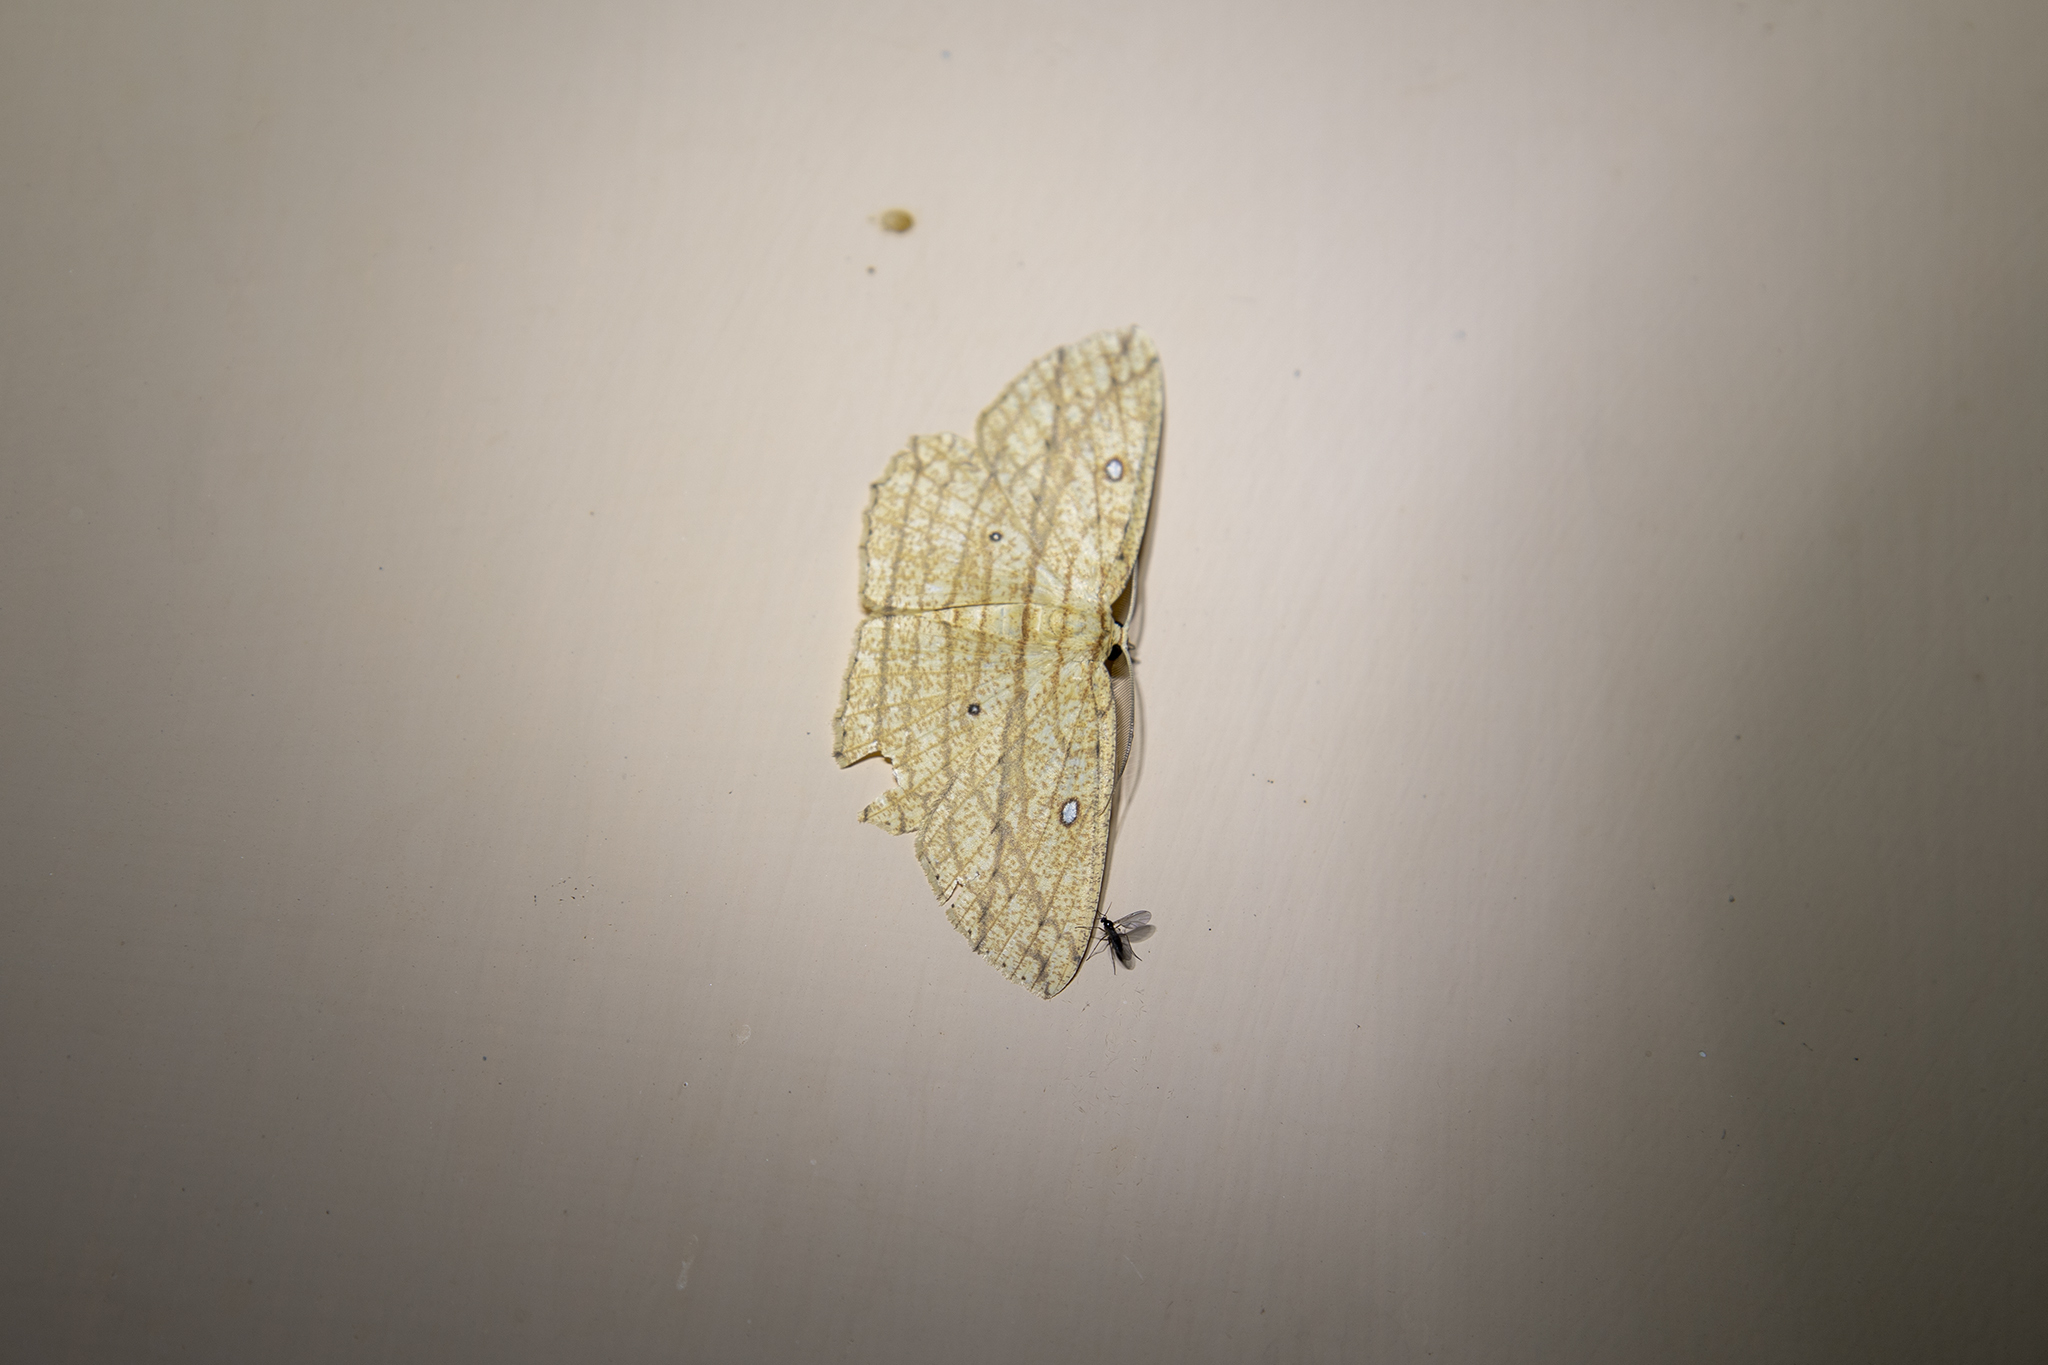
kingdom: Animalia
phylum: Arthropoda
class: Insecta
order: Lepidoptera
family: Geometridae
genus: Parasynegia
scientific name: Parasynegia pluristriata
